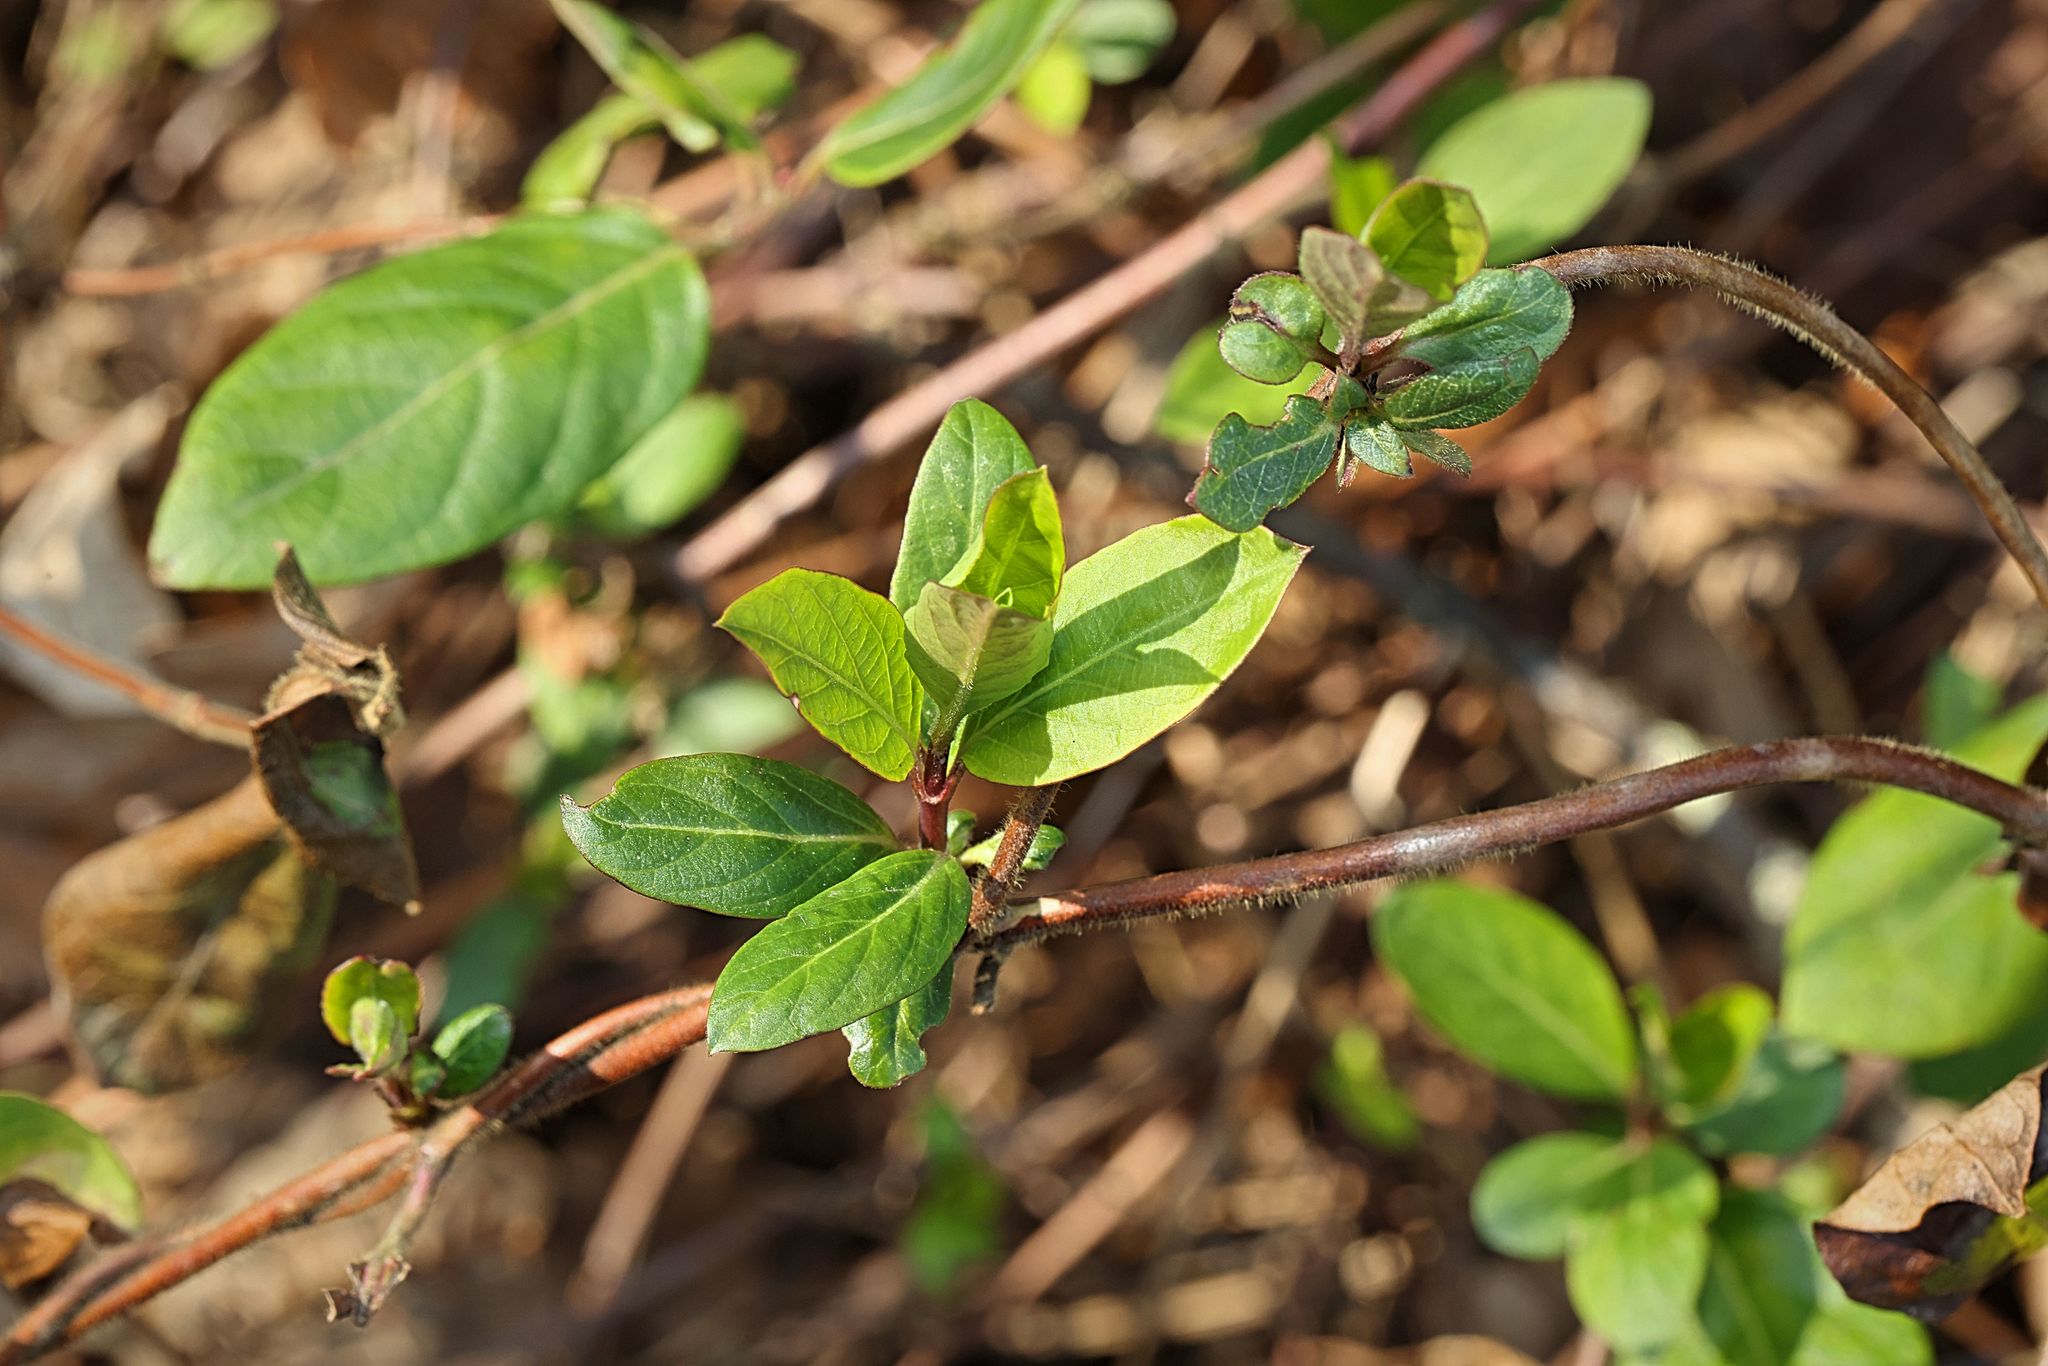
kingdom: Plantae
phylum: Tracheophyta
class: Magnoliopsida
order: Dipsacales
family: Caprifoliaceae
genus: Lonicera
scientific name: Lonicera japonica
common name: Japanese honeysuckle
